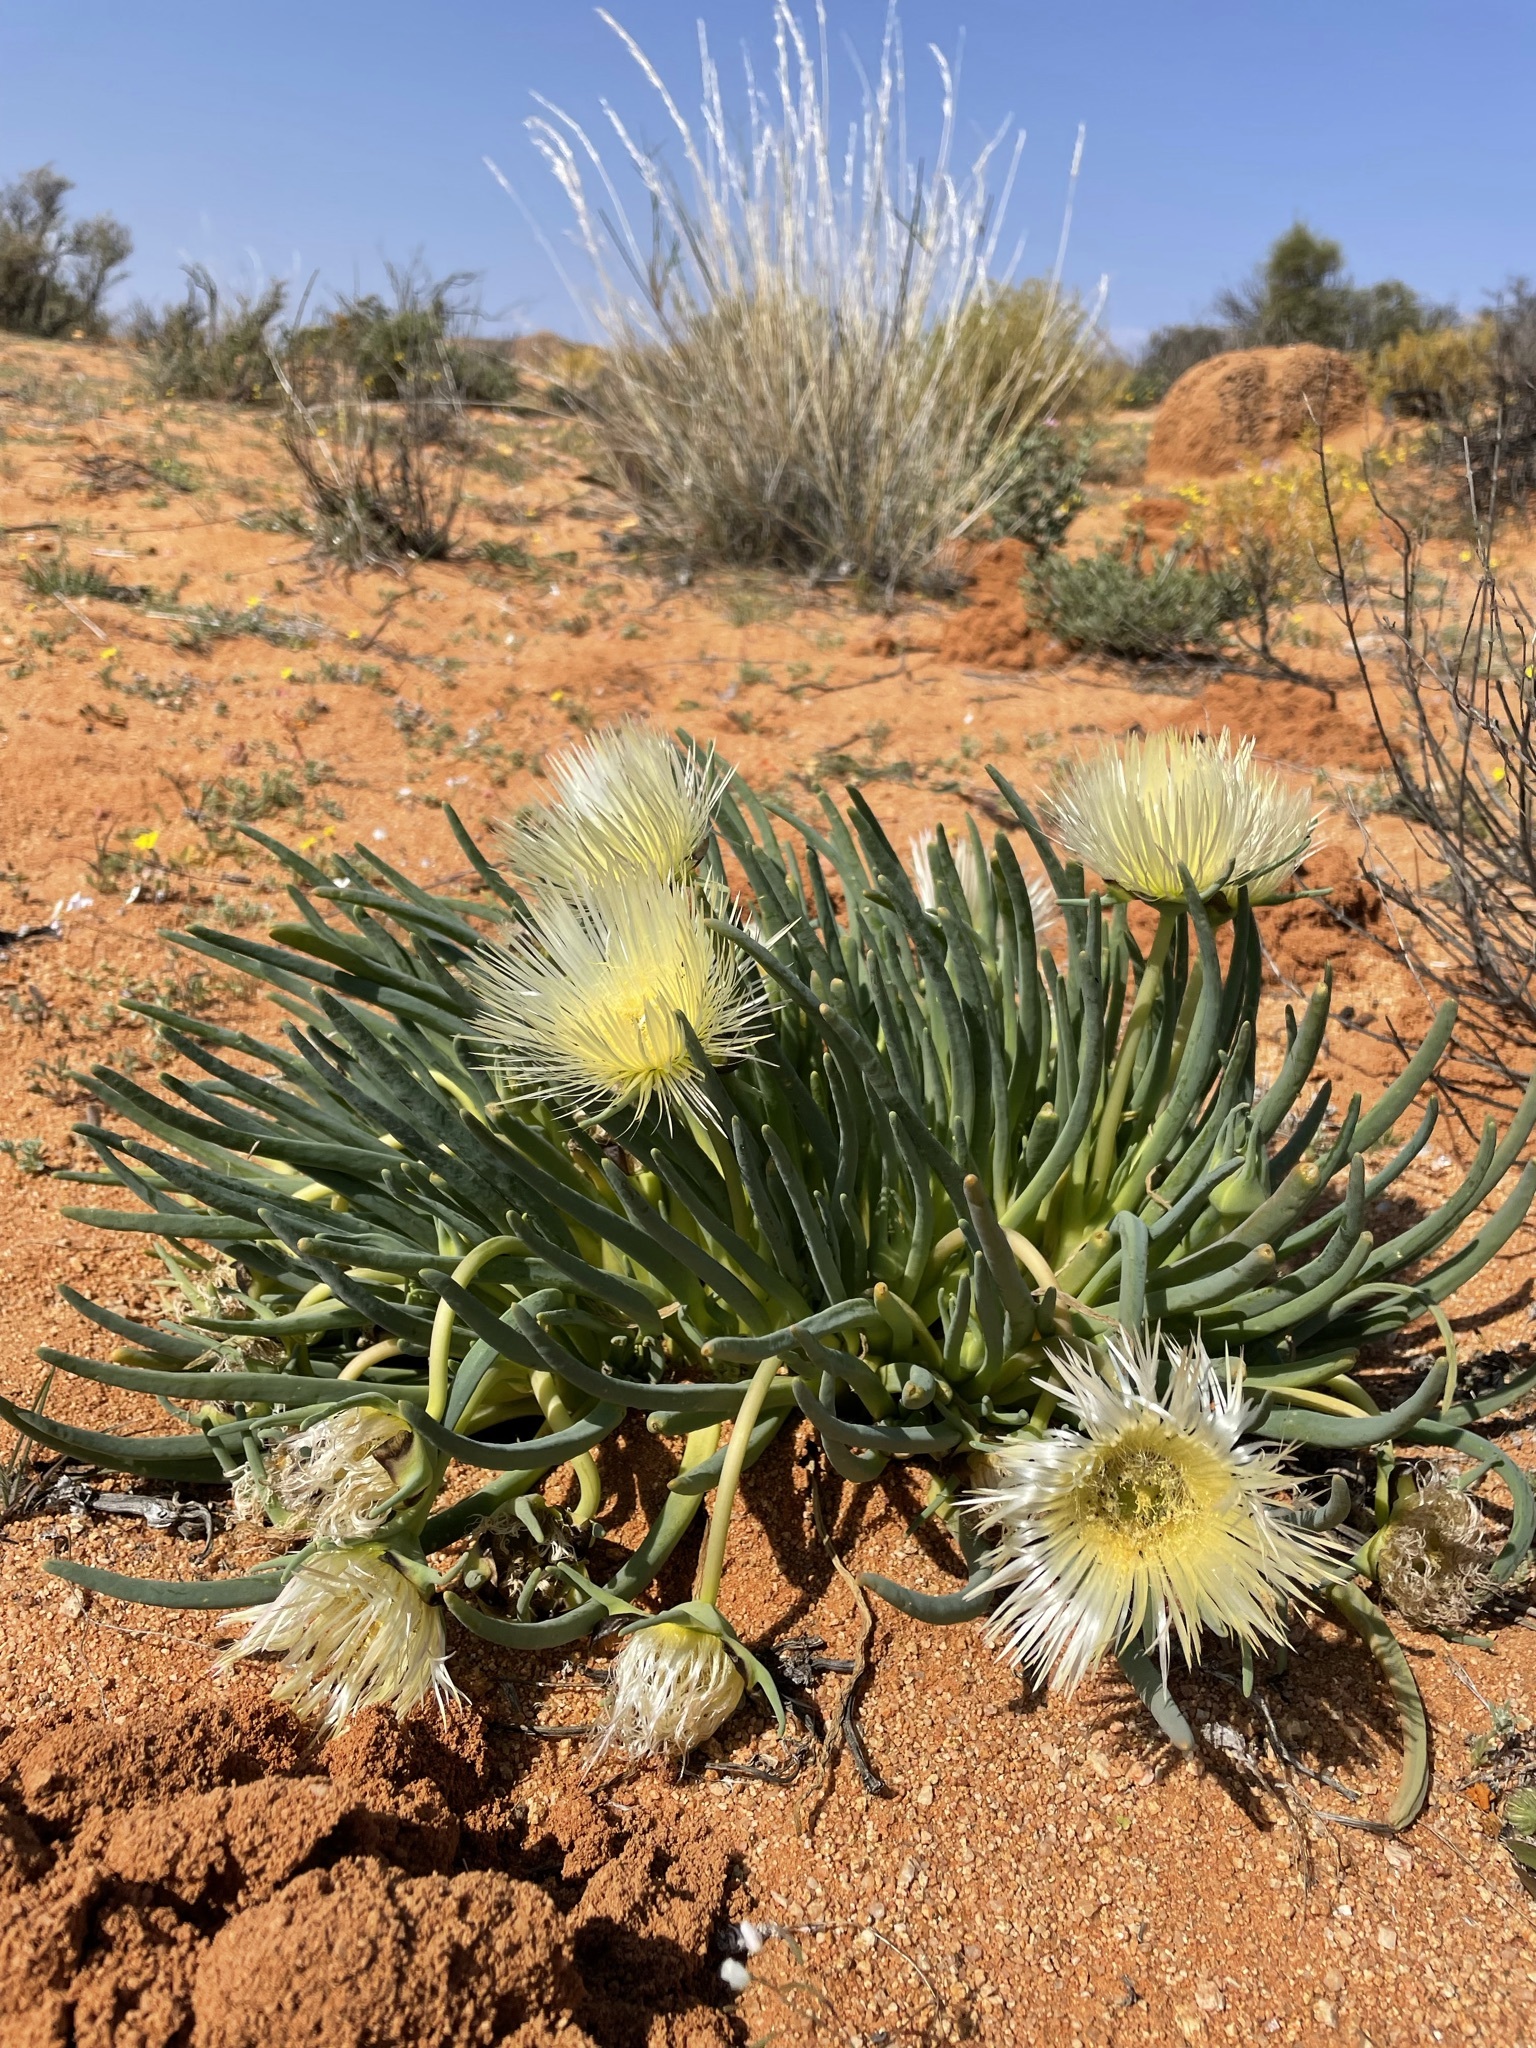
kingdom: Plantae
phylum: Tracheophyta
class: Magnoliopsida
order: Caryophyllales
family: Aizoaceae
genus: Conicosia
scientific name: Conicosia elongata
